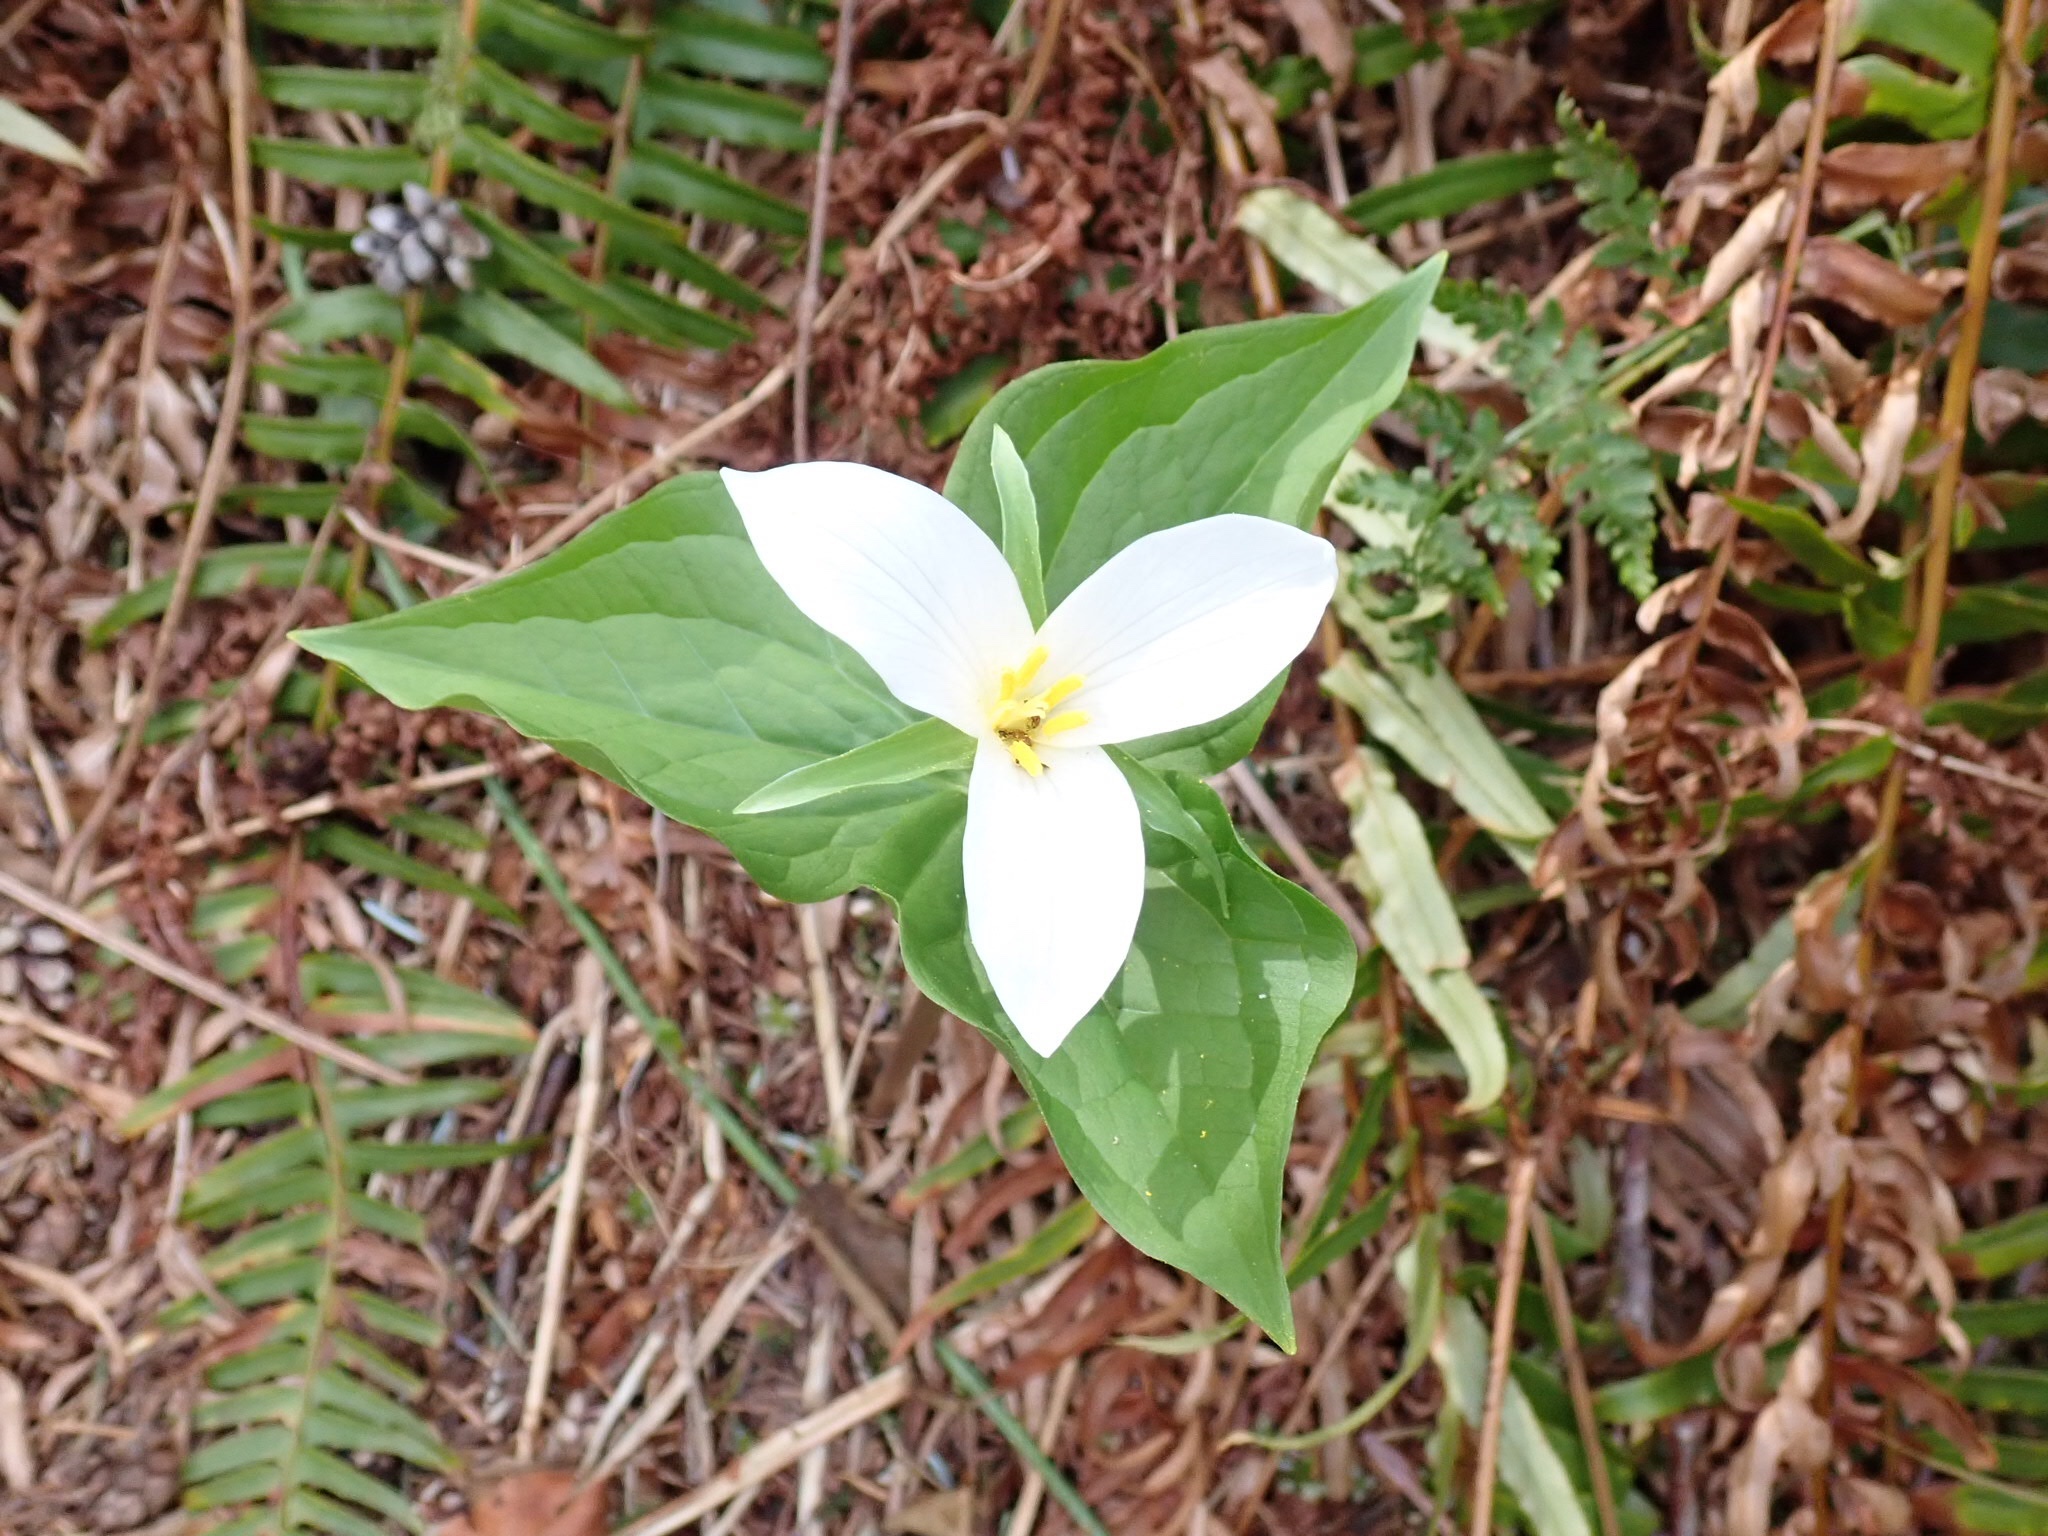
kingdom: Plantae
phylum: Tracheophyta
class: Liliopsida
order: Liliales
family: Melanthiaceae
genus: Trillium
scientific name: Trillium ovatum
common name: Pacific trillium
